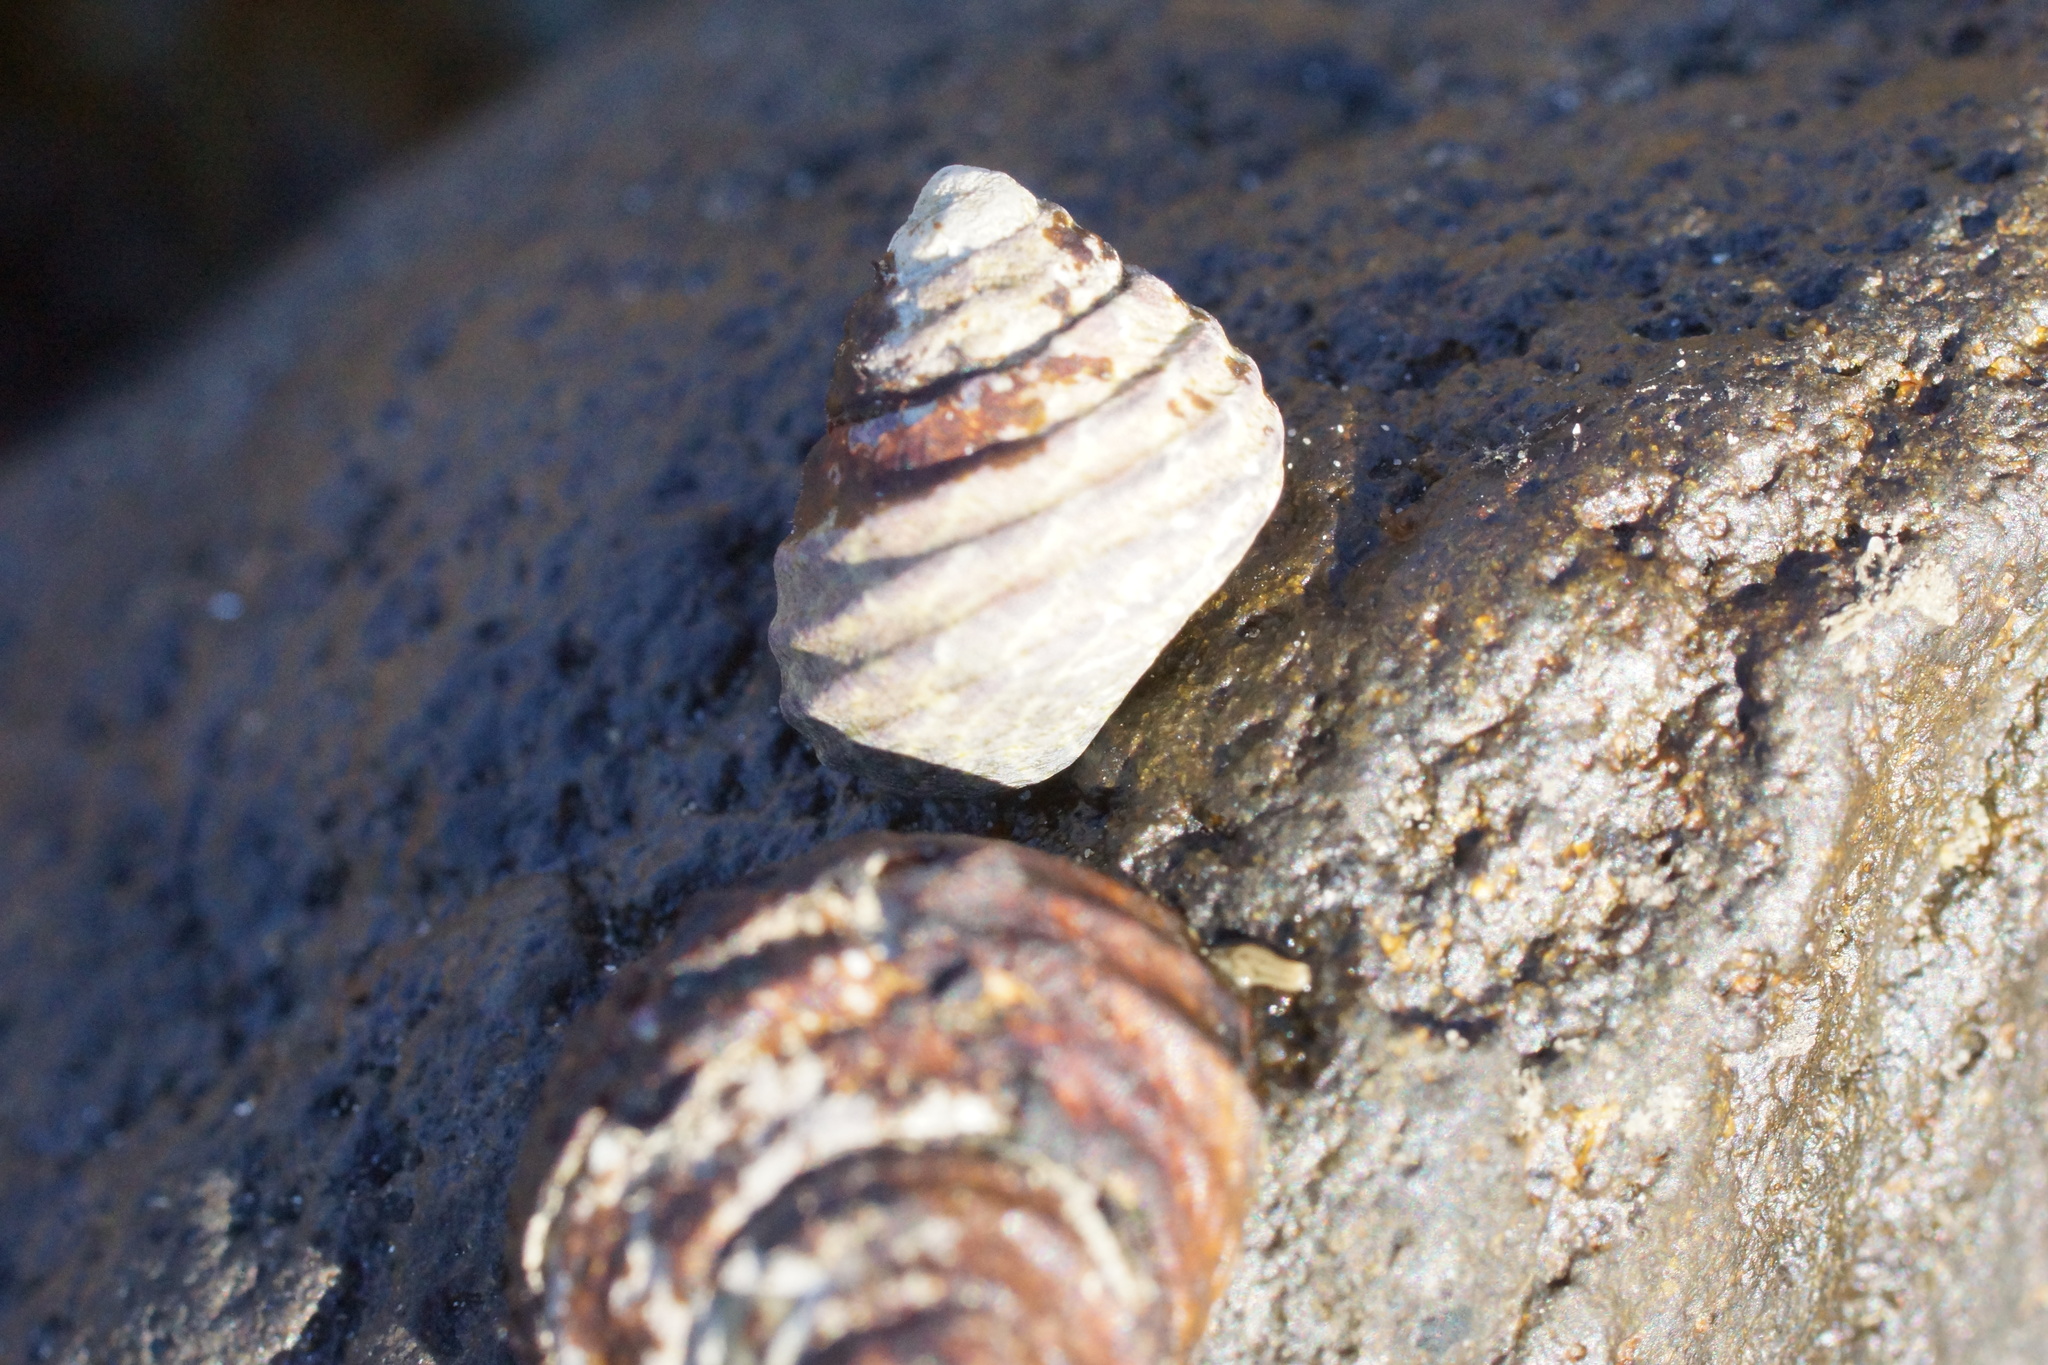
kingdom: Animalia
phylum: Mollusca
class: Gastropoda
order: Trochida
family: Trochidae
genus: Austrocochlea
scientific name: Austrocochlea constricta
